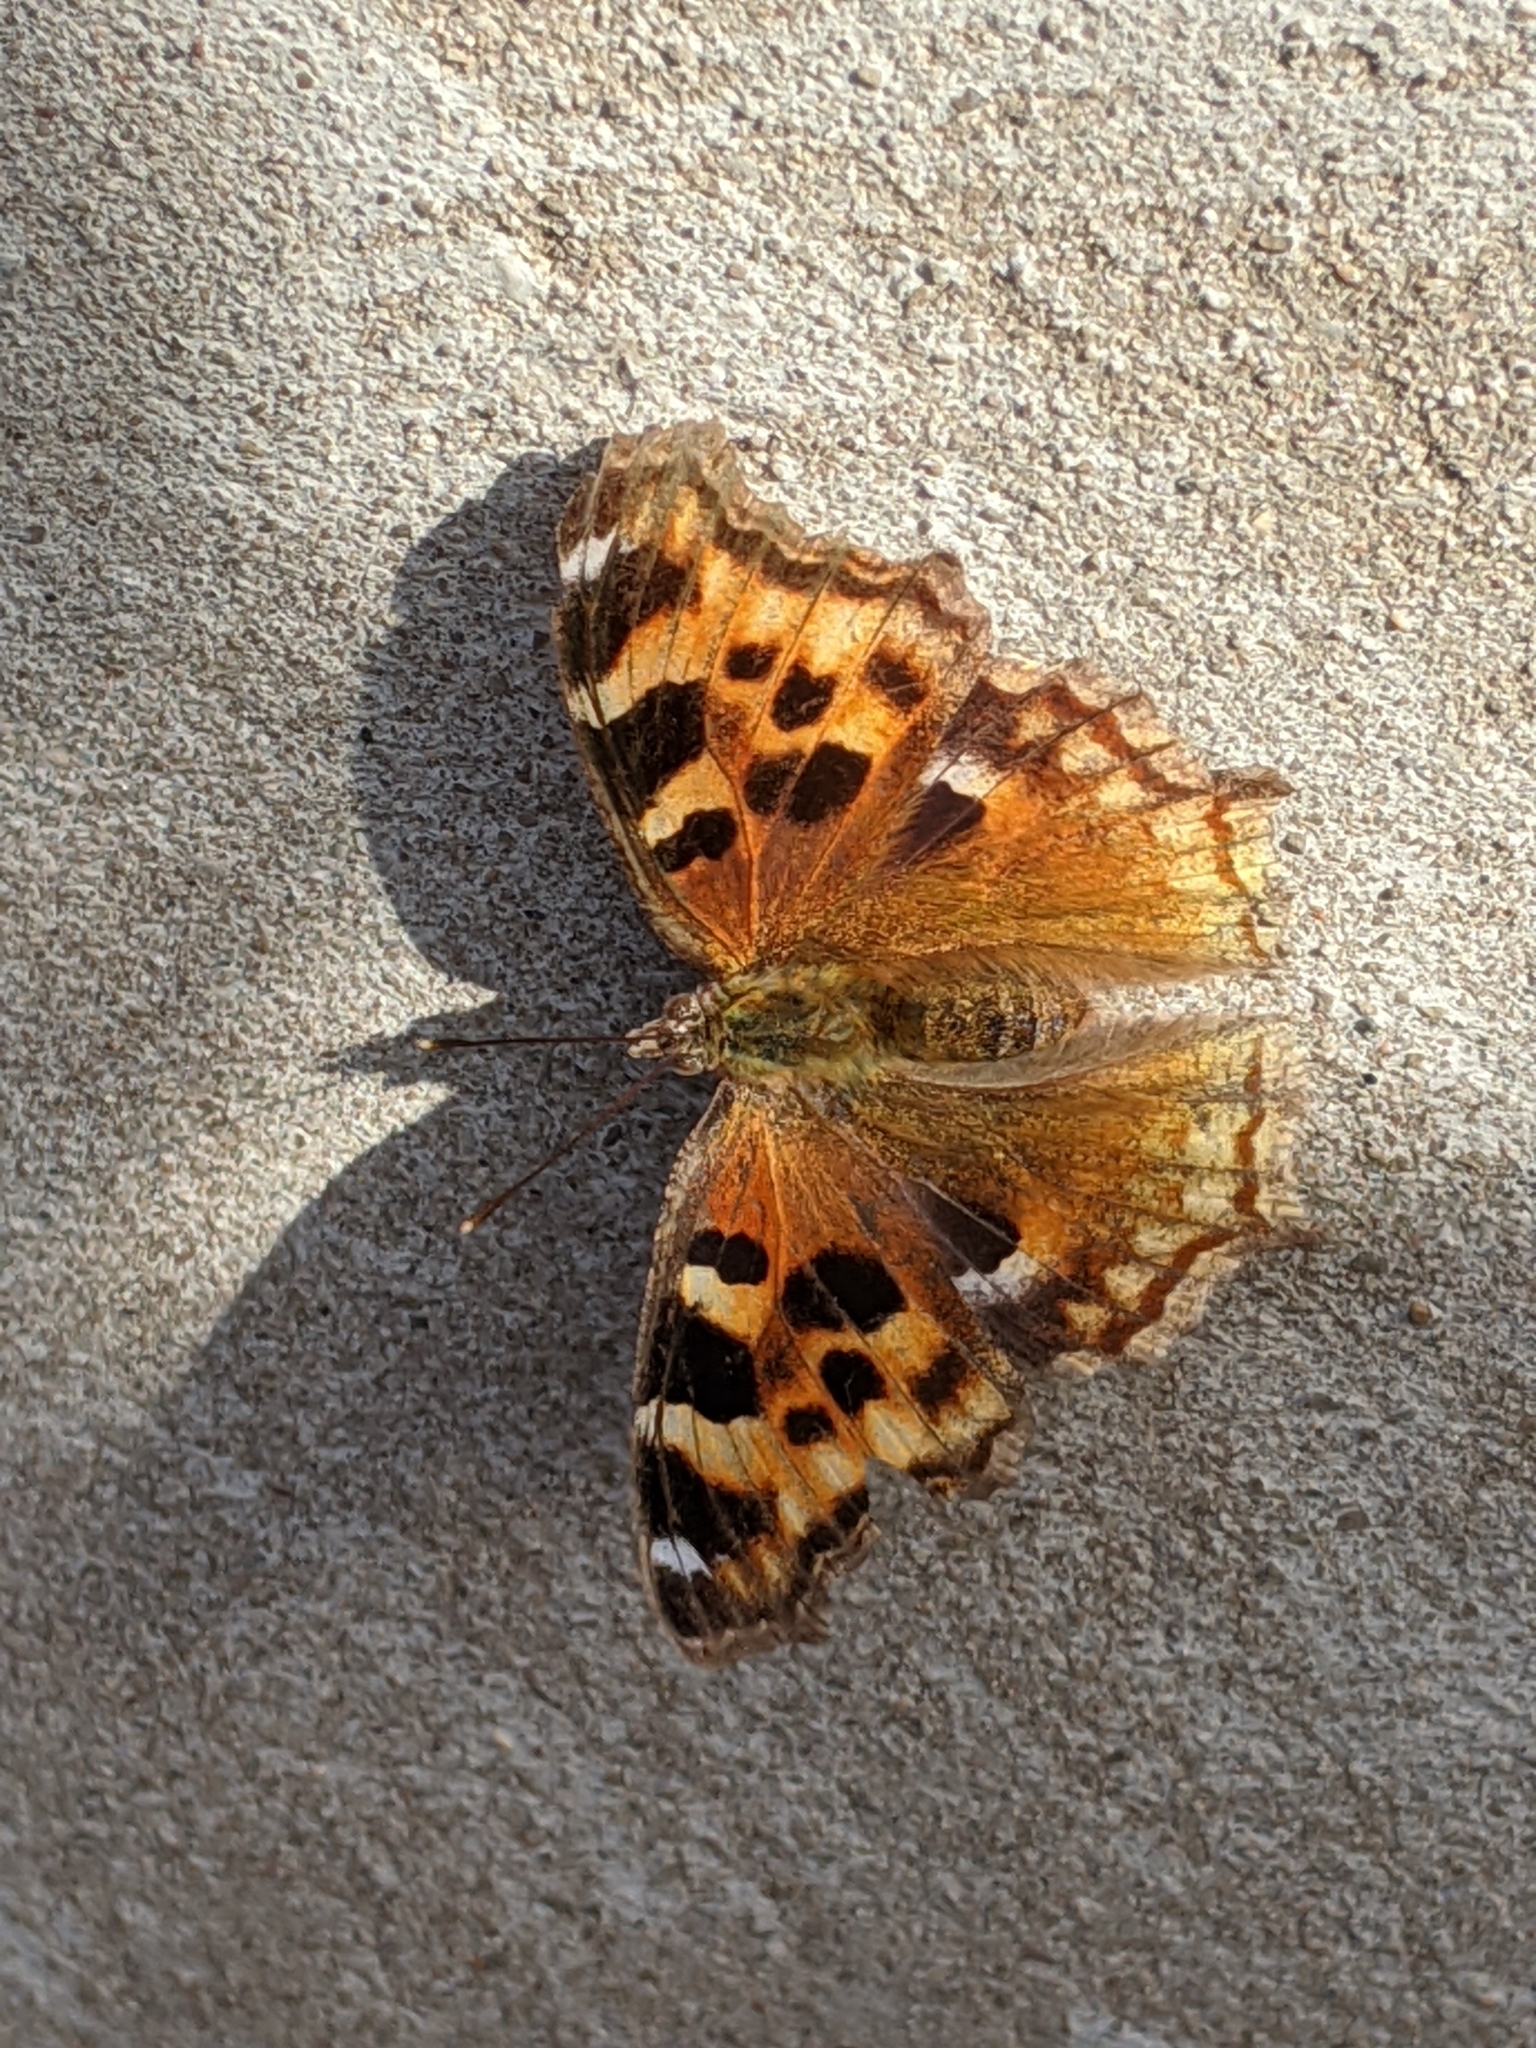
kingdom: Animalia
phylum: Arthropoda
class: Insecta
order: Lepidoptera
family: Nymphalidae
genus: Polygonia
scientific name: Polygonia vaualbum
